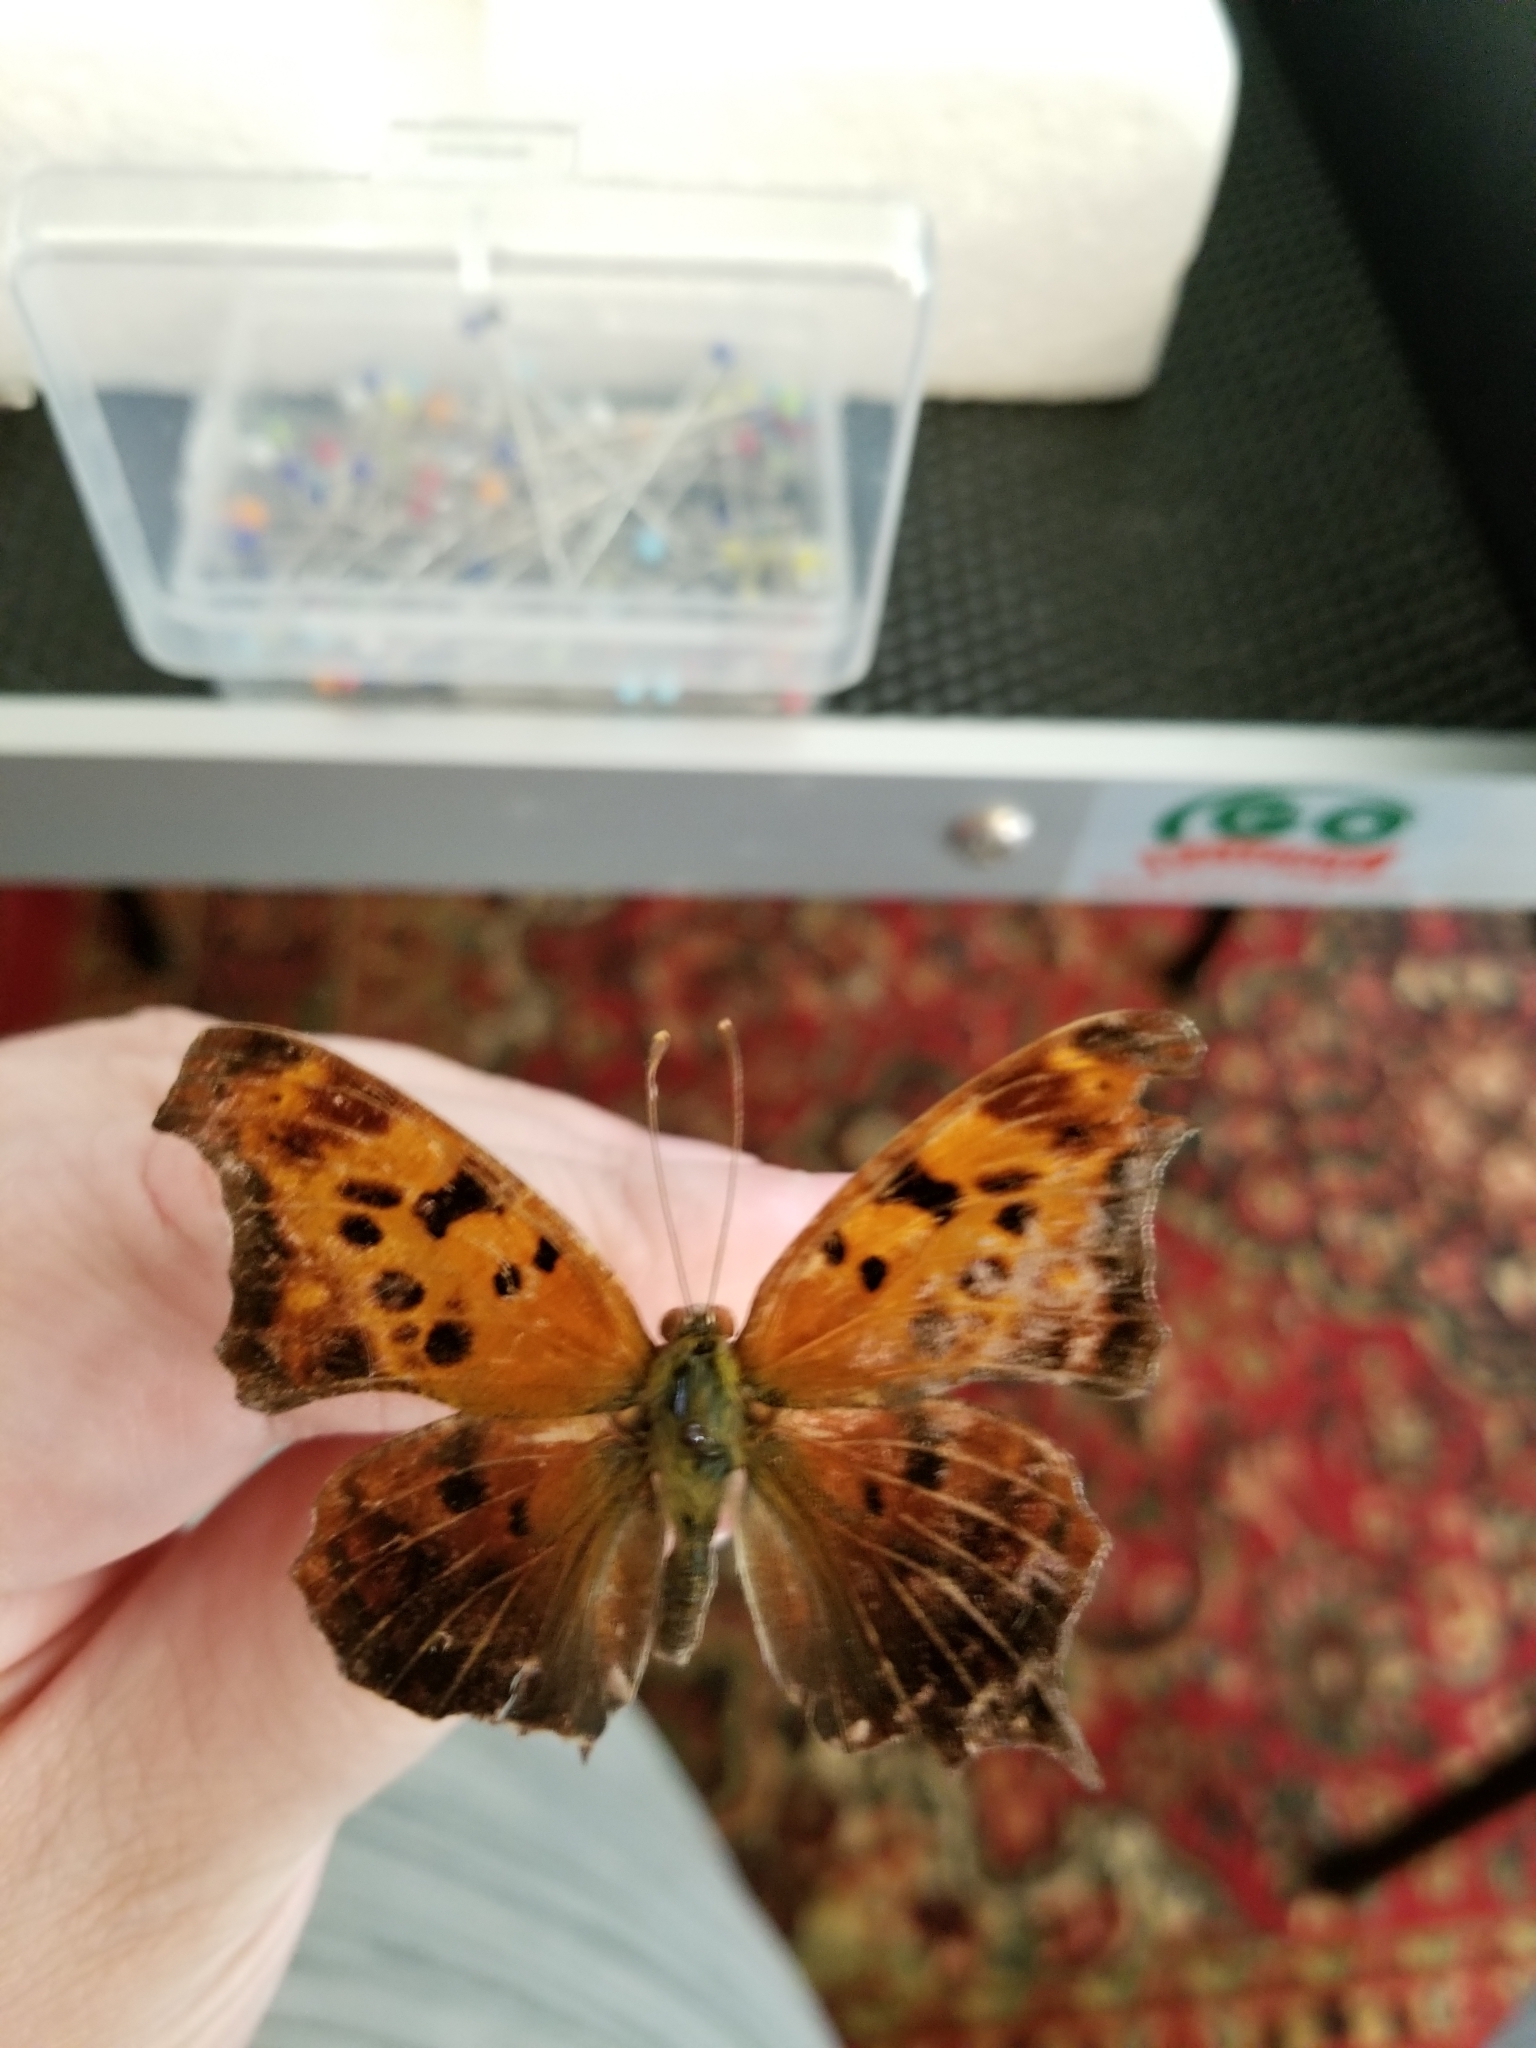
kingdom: Animalia
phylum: Arthropoda
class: Insecta
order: Lepidoptera
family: Nymphalidae
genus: Polygonia
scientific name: Polygonia interrogationis
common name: Question mark
